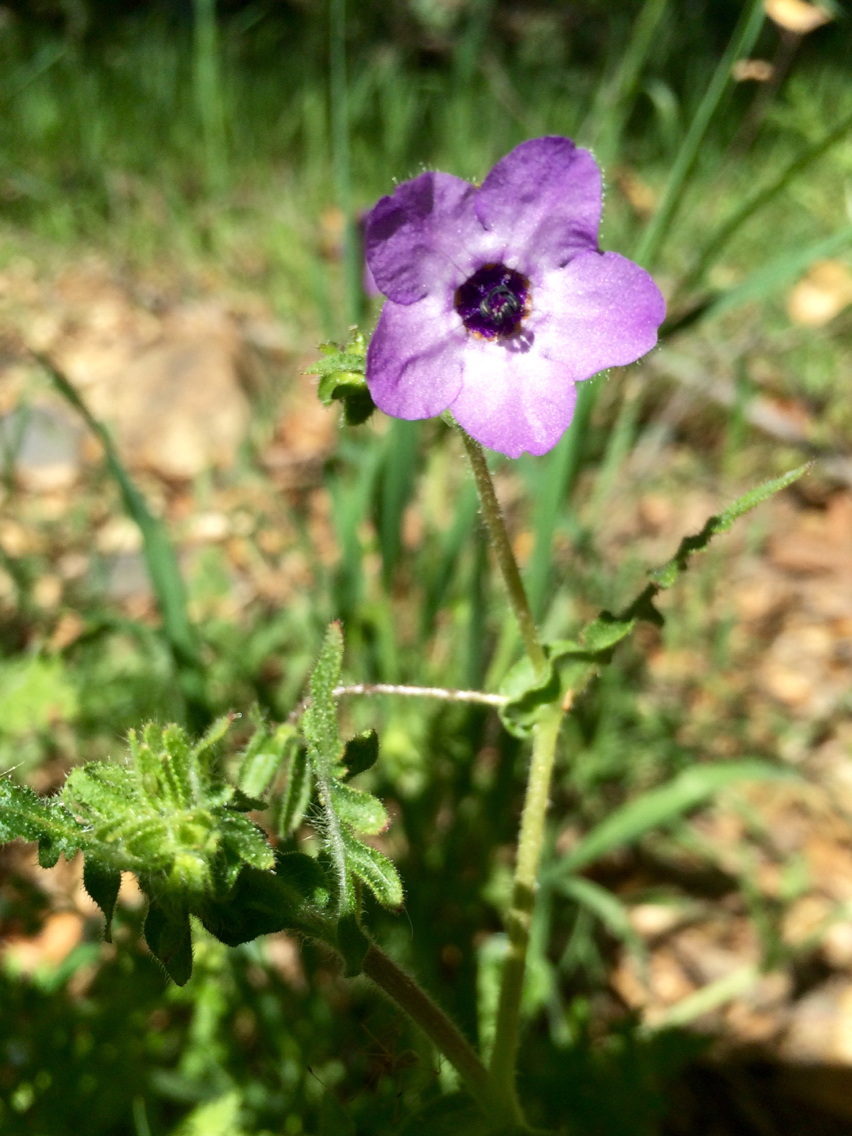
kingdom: Plantae
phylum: Tracheophyta
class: Magnoliopsida
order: Boraginales
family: Hydrophyllaceae
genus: Pholistoma
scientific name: Pholistoma auritum
